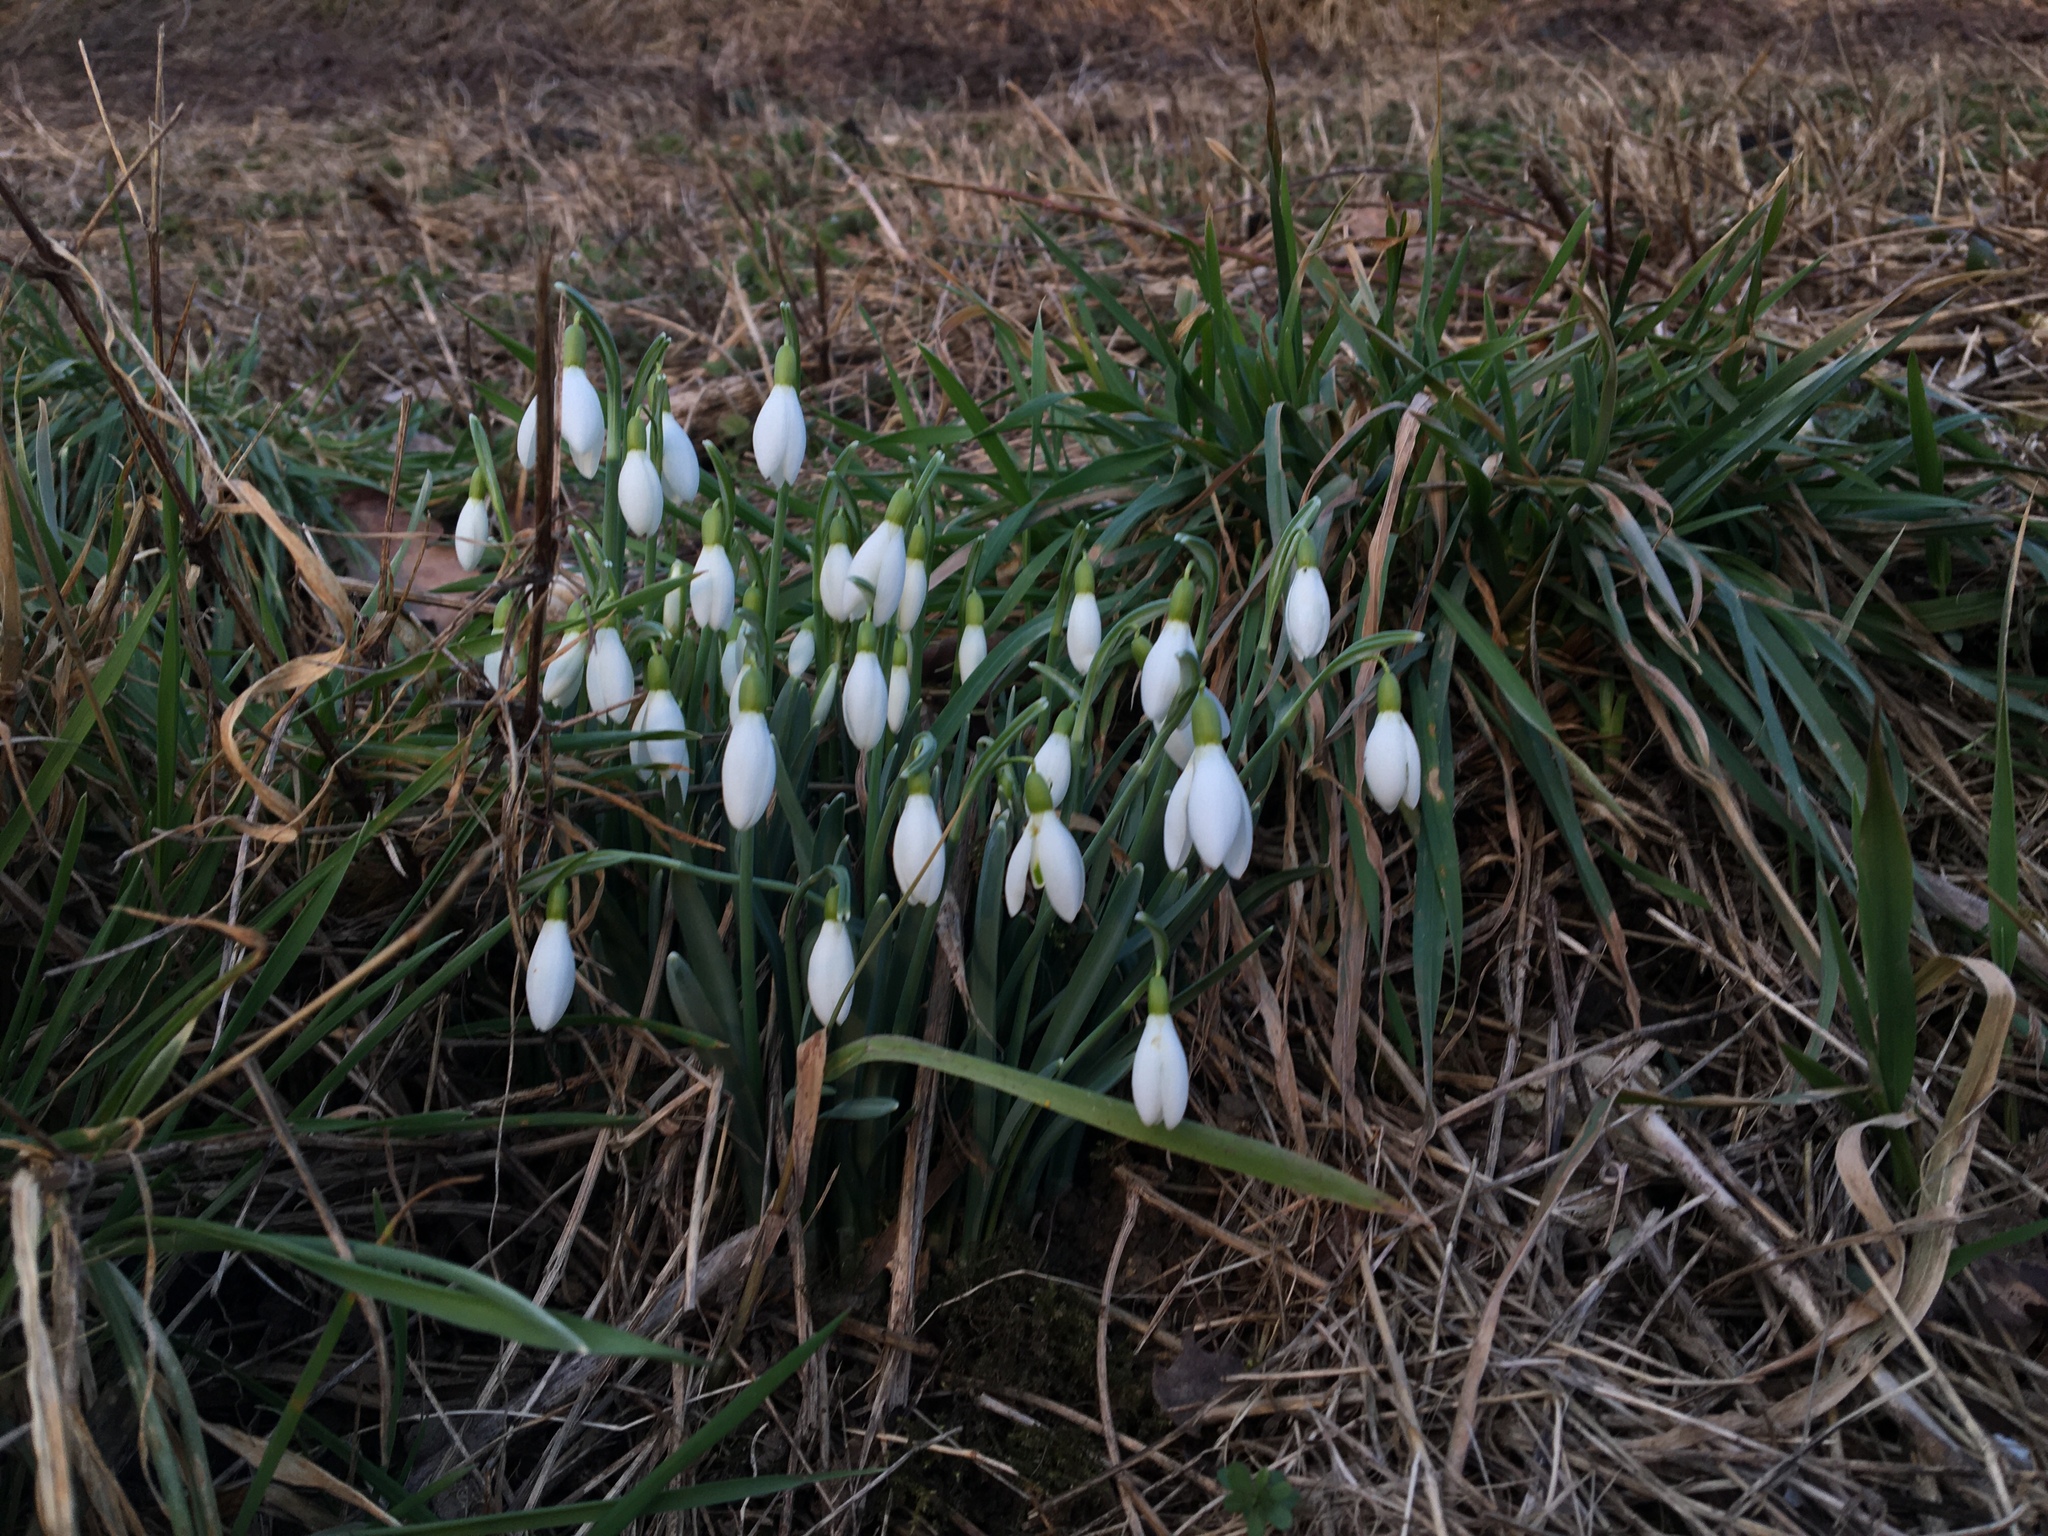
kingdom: Plantae
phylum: Tracheophyta
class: Liliopsida
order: Asparagales
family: Amaryllidaceae
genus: Galanthus
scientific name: Galanthus nivalis
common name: Snowdrop
